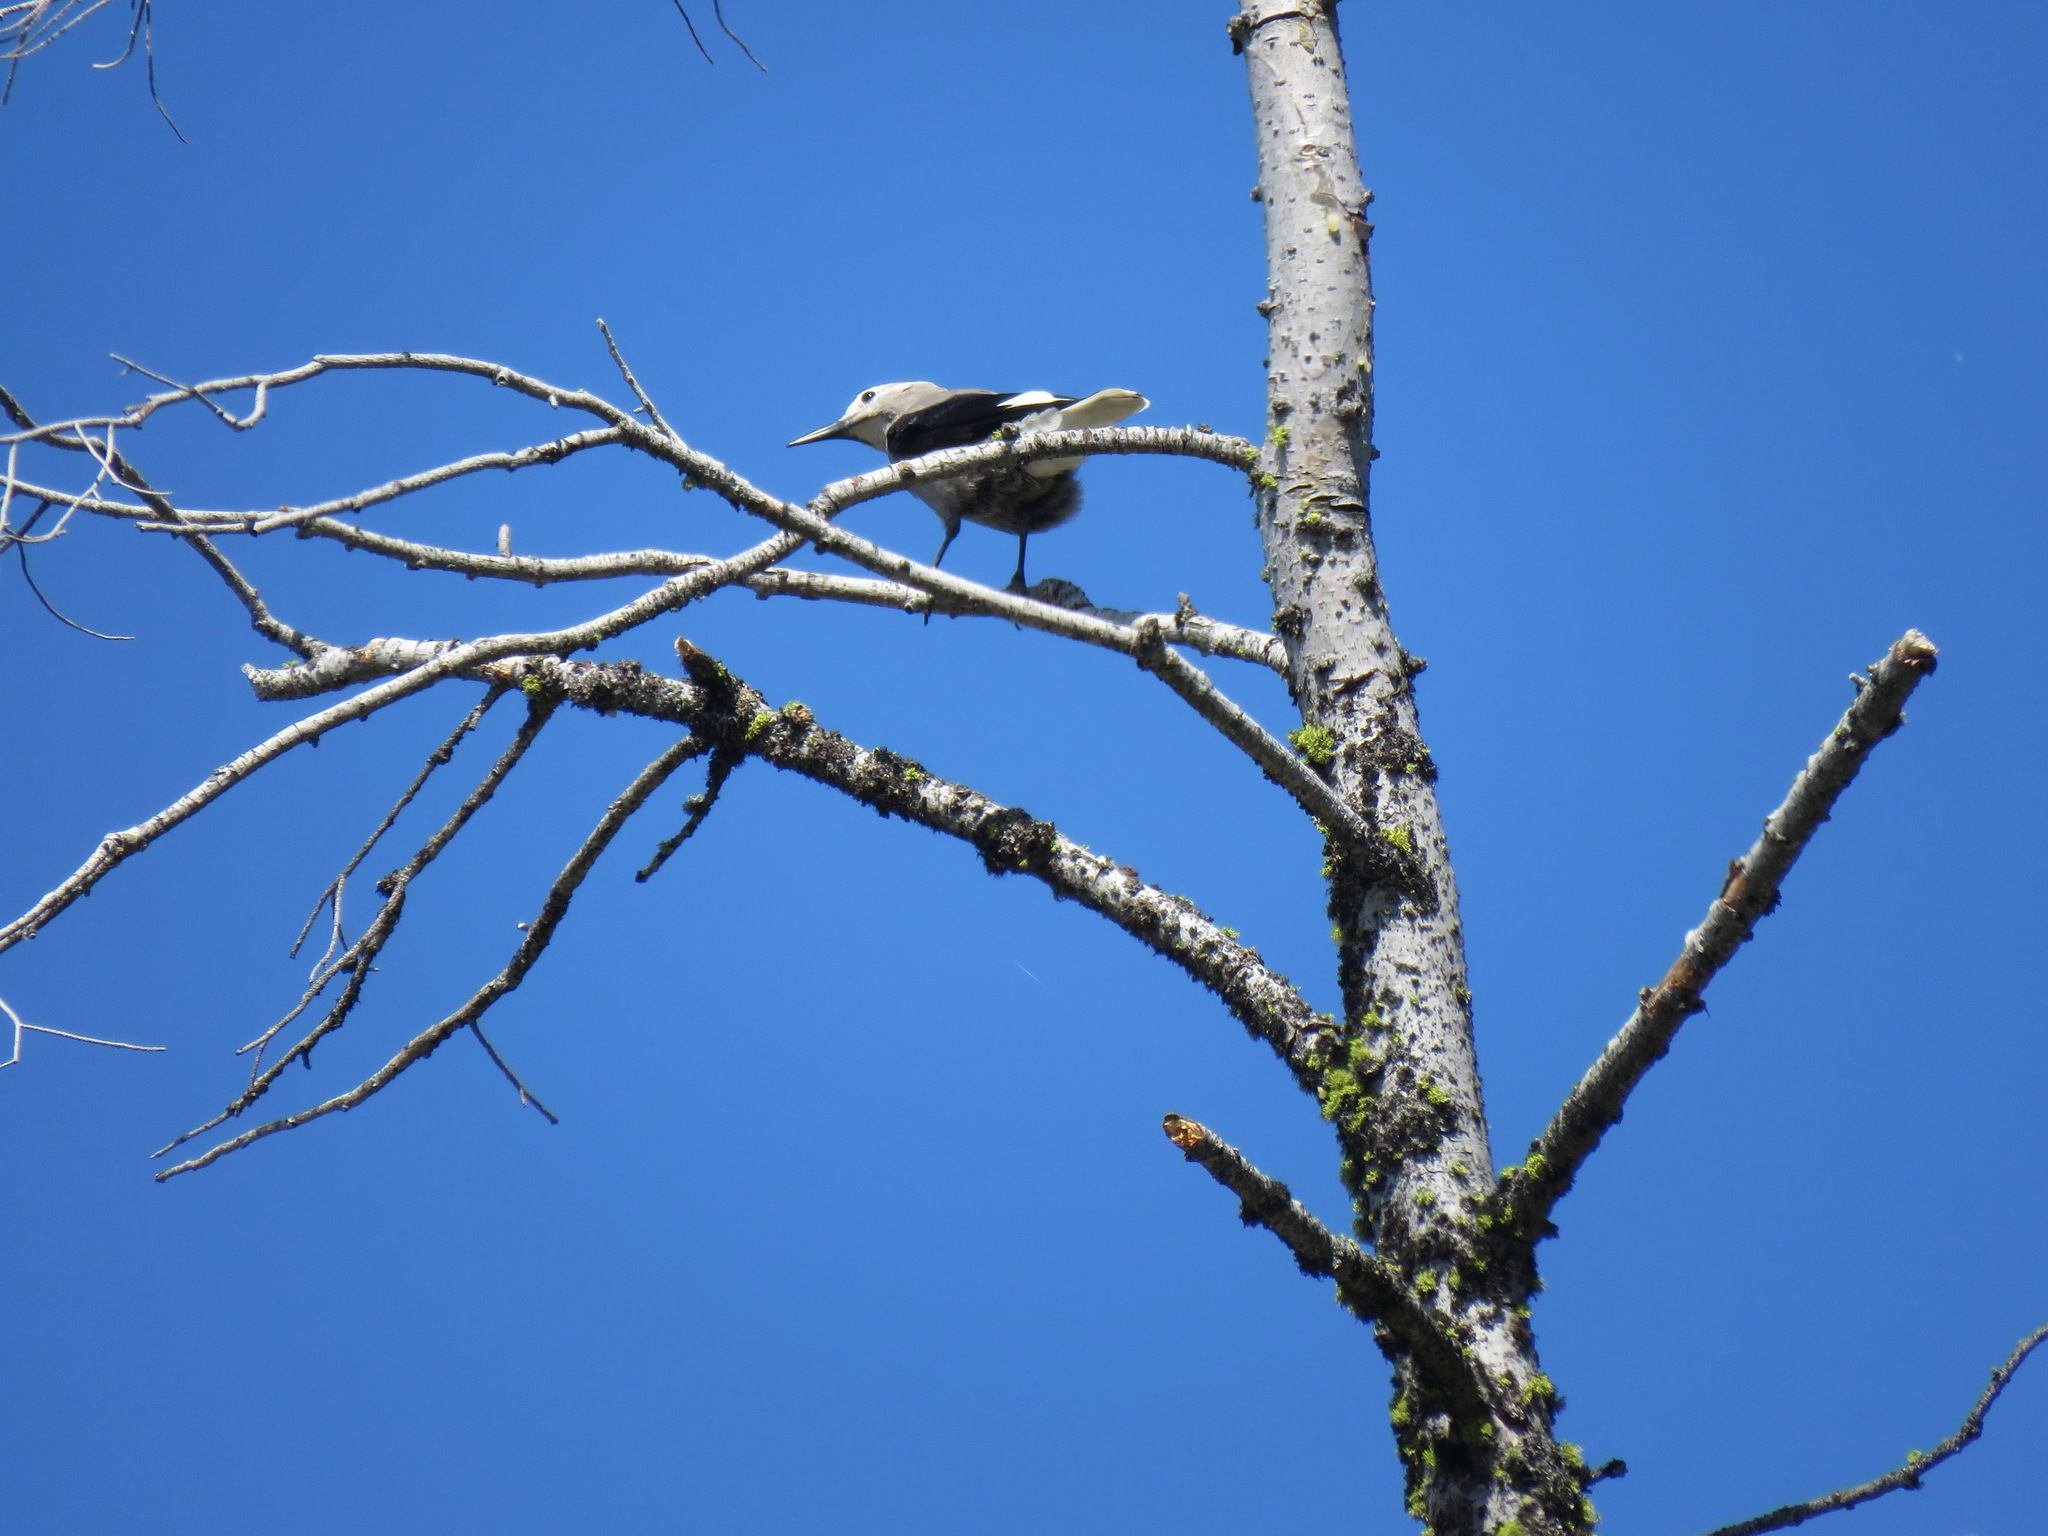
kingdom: Animalia
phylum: Chordata
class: Aves
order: Passeriformes
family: Corvidae
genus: Nucifraga
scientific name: Nucifraga columbiana
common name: Clark's nutcracker
